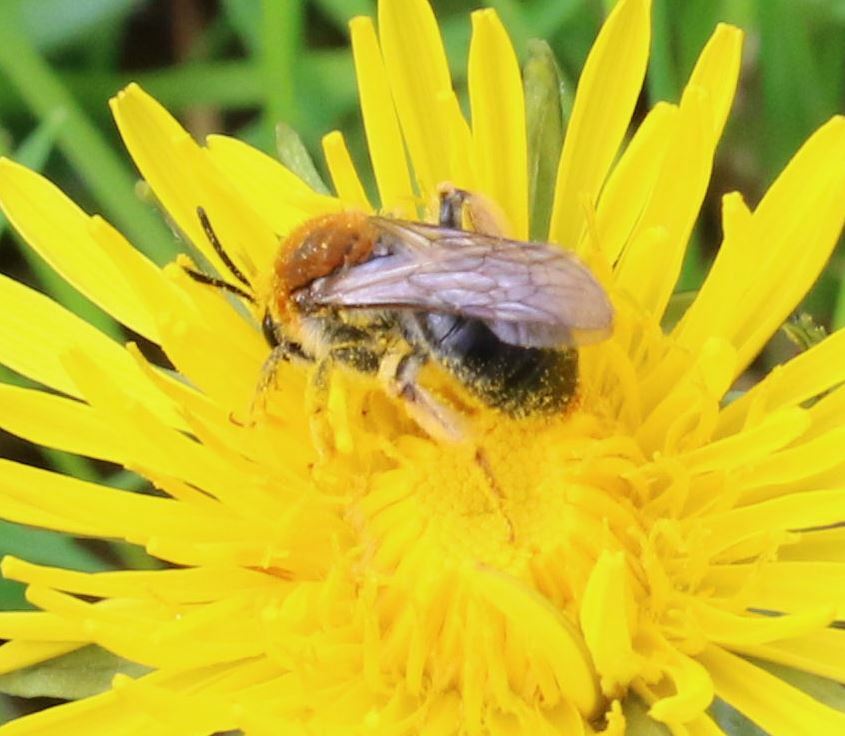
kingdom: Animalia
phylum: Arthropoda
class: Insecta
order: Hymenoptera
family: Andrenidae
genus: Andrena
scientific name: Andrena haemorrhoa
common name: Early mining bee
